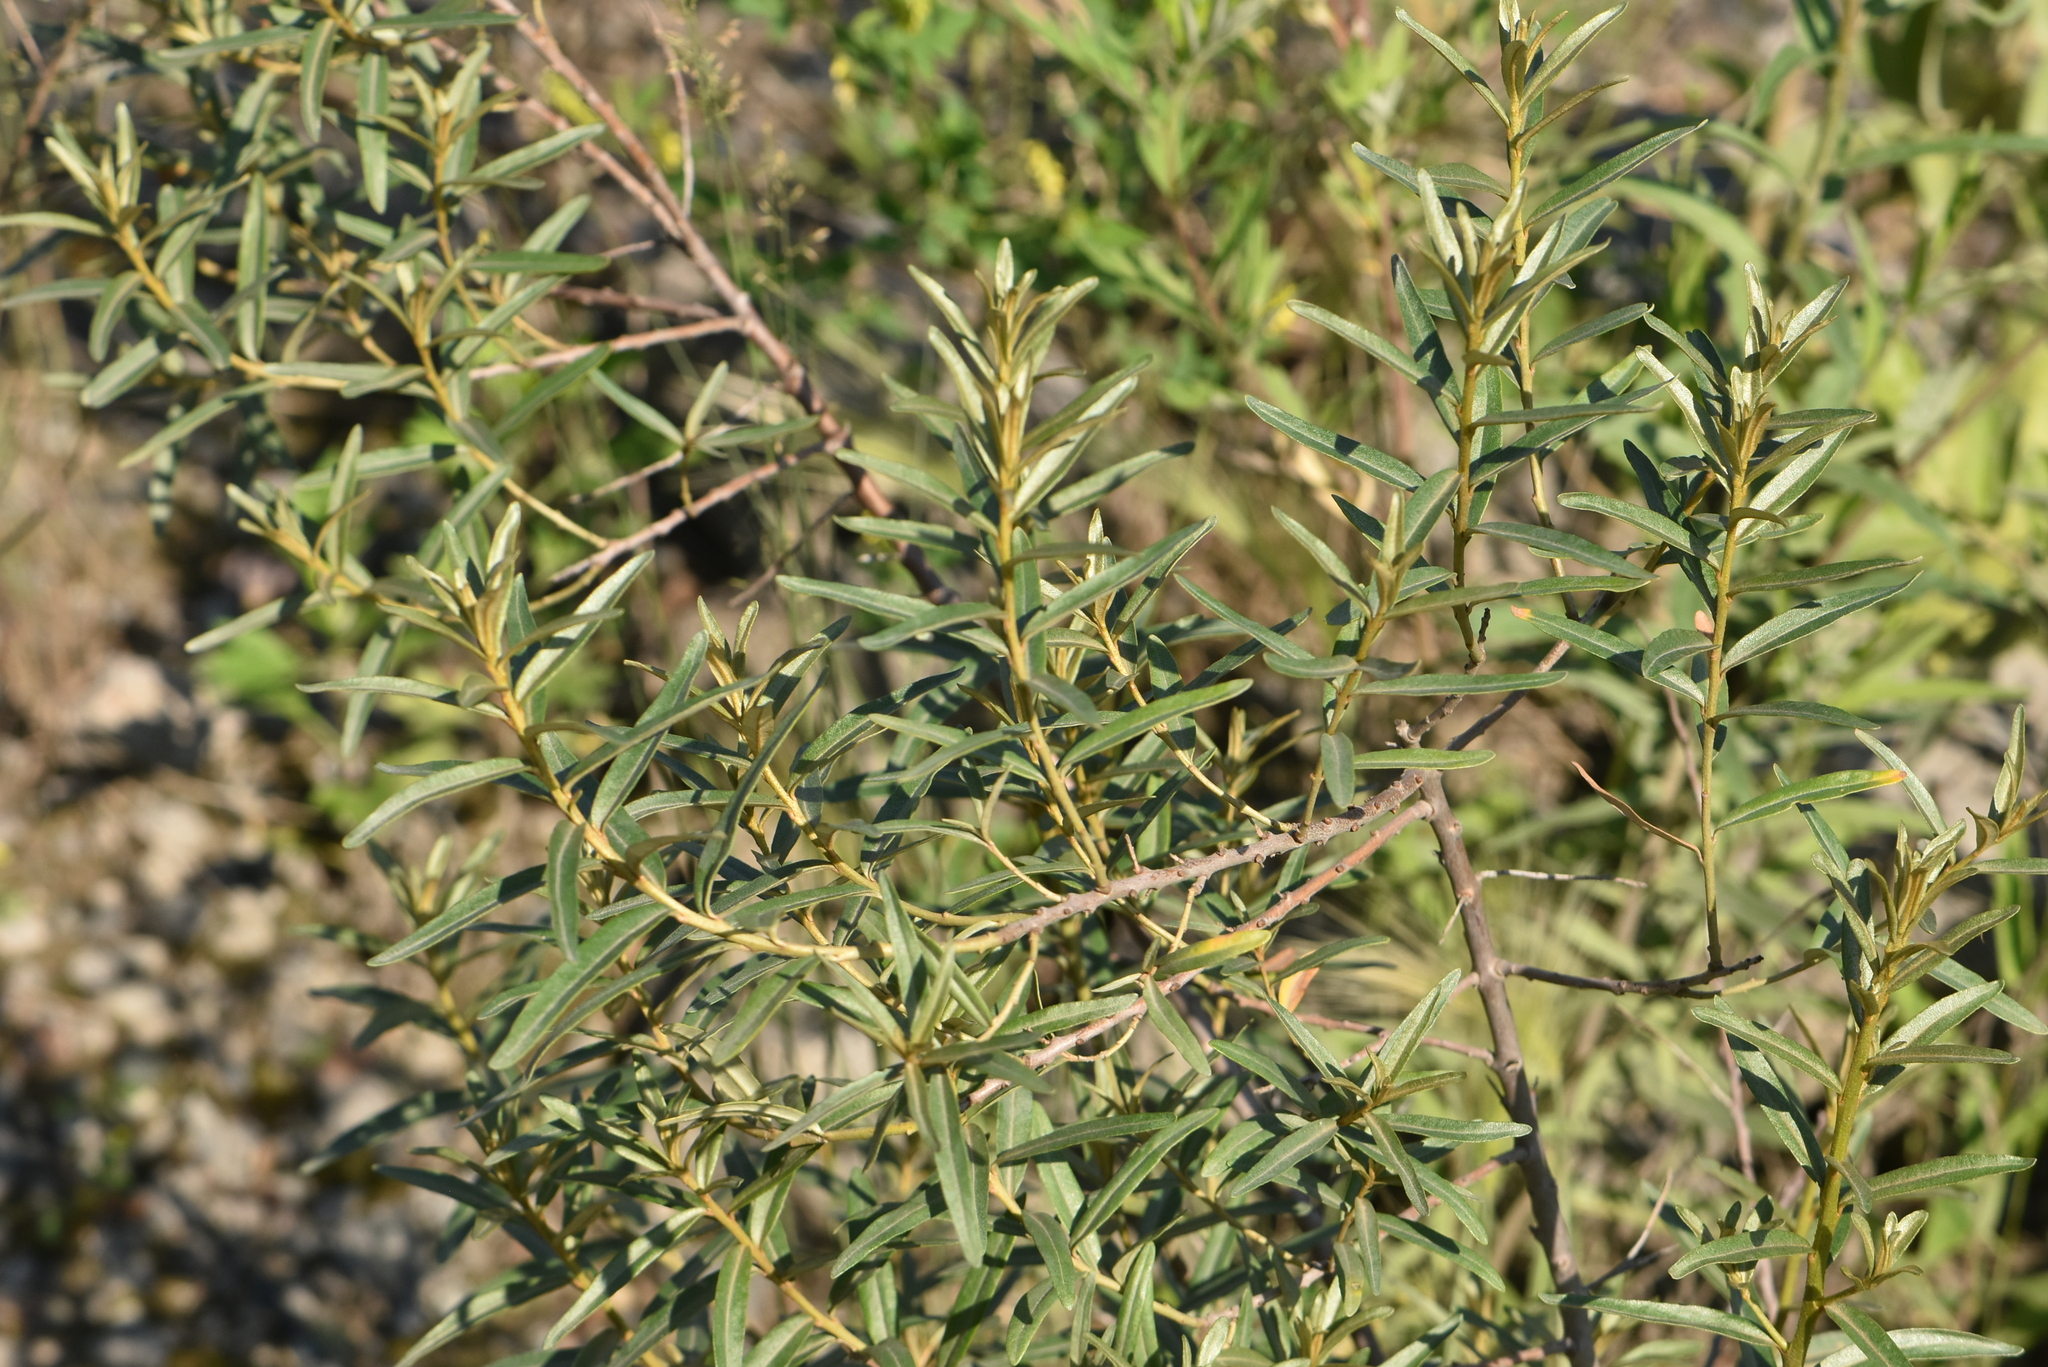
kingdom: Plantae
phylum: Tracheophyta
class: Magnoliopsida
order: Rosales
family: Elaeagnaceae
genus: Hippophae
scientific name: Hippophae rhamnoides
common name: Sea-buckthorn
